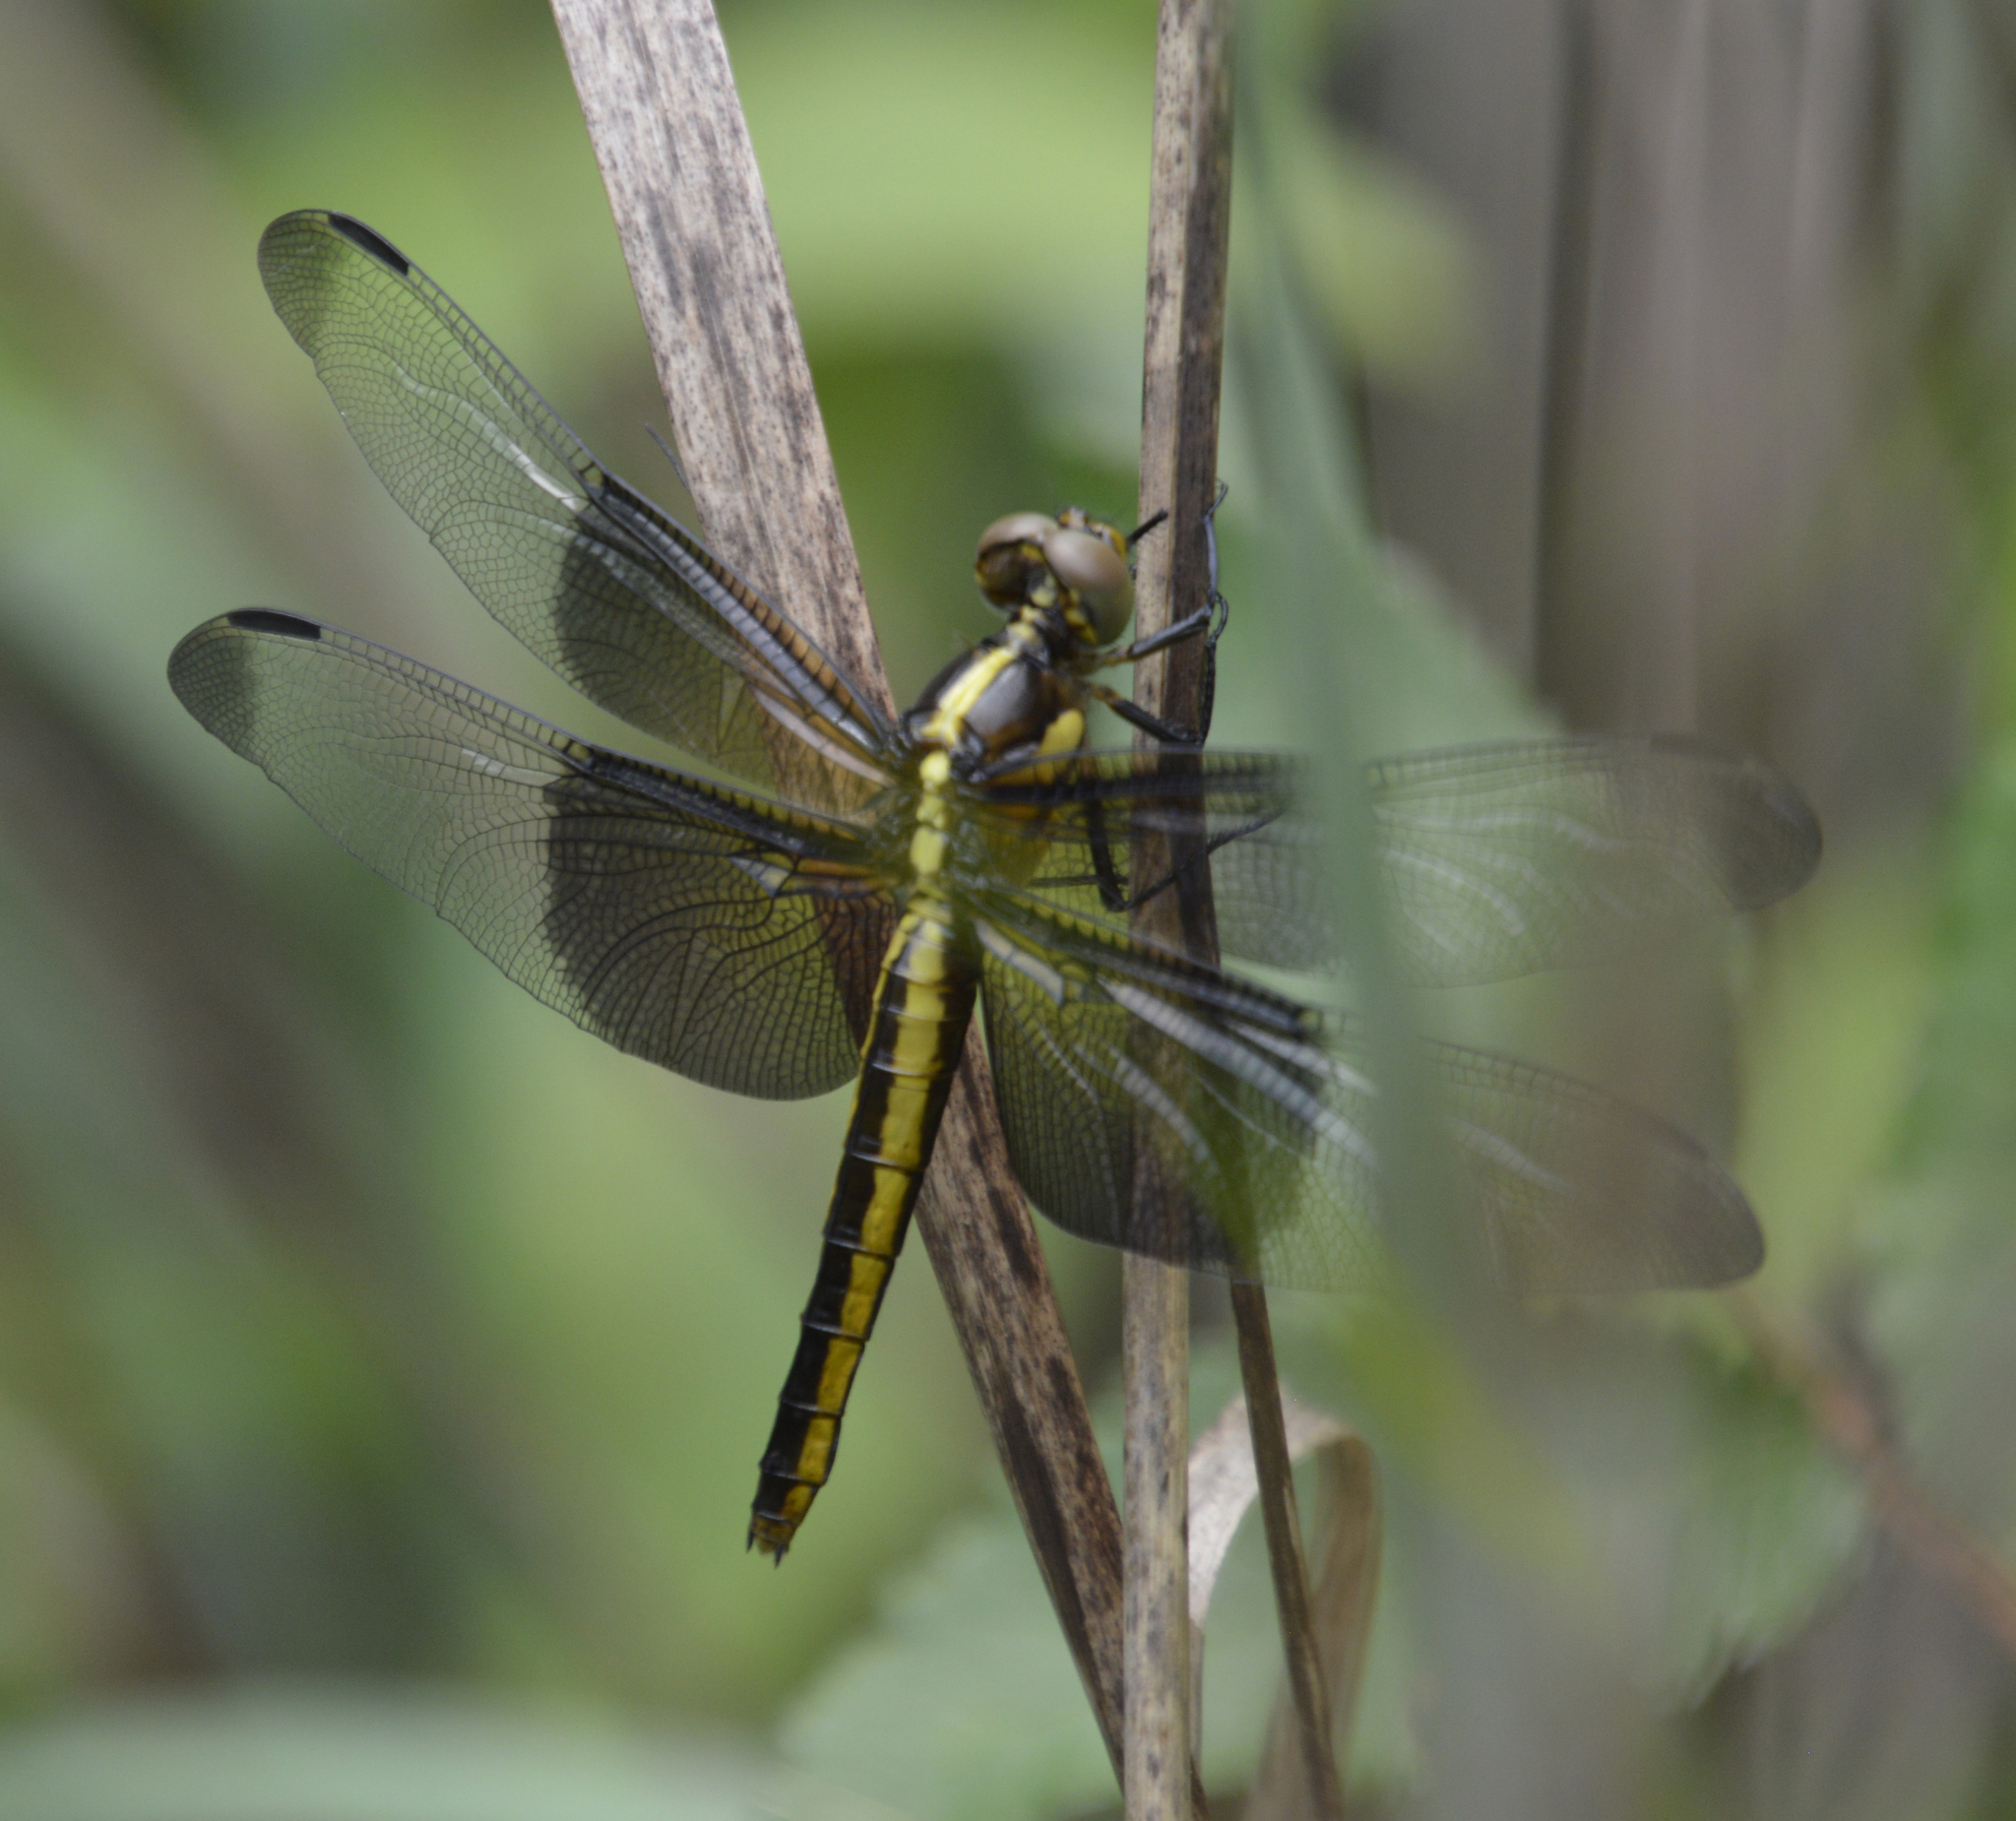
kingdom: Animalia
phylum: Arthropoda
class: Insecta
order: Odonata
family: Libellulidae
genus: Libellula
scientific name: Libellula luctuosa
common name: Widow skimmer
